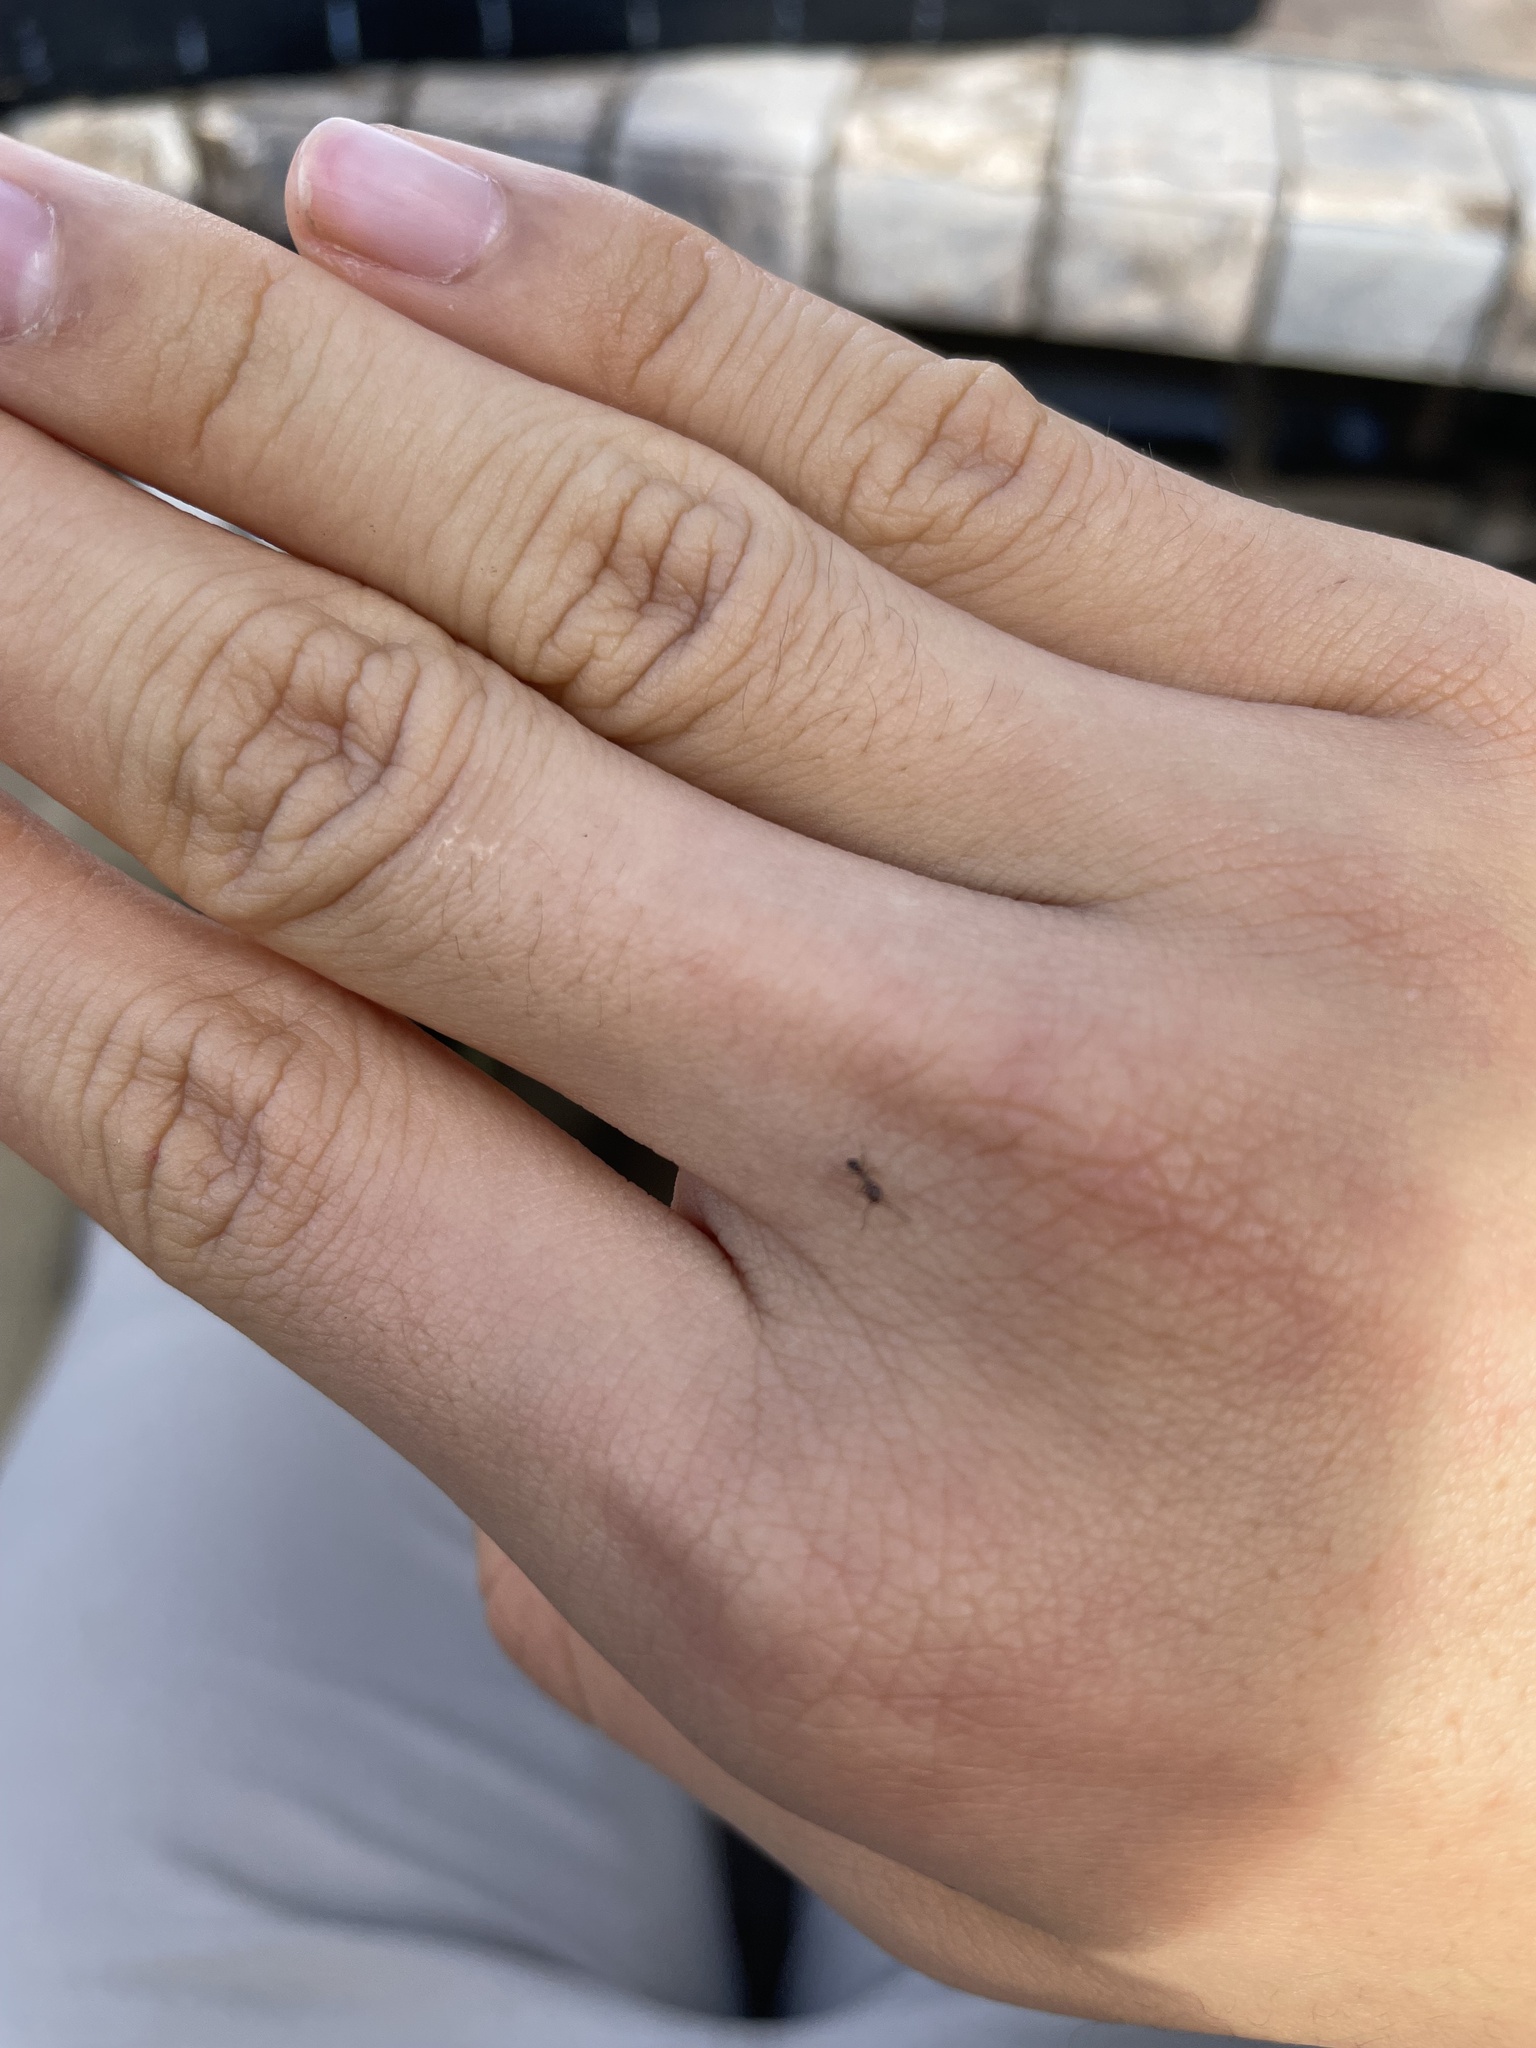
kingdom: Animalia
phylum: Arthropoda
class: Insecta
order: Hymenoptera
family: Formicidae
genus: Linepithema
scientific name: Linepithema humile
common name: Argentine ant
